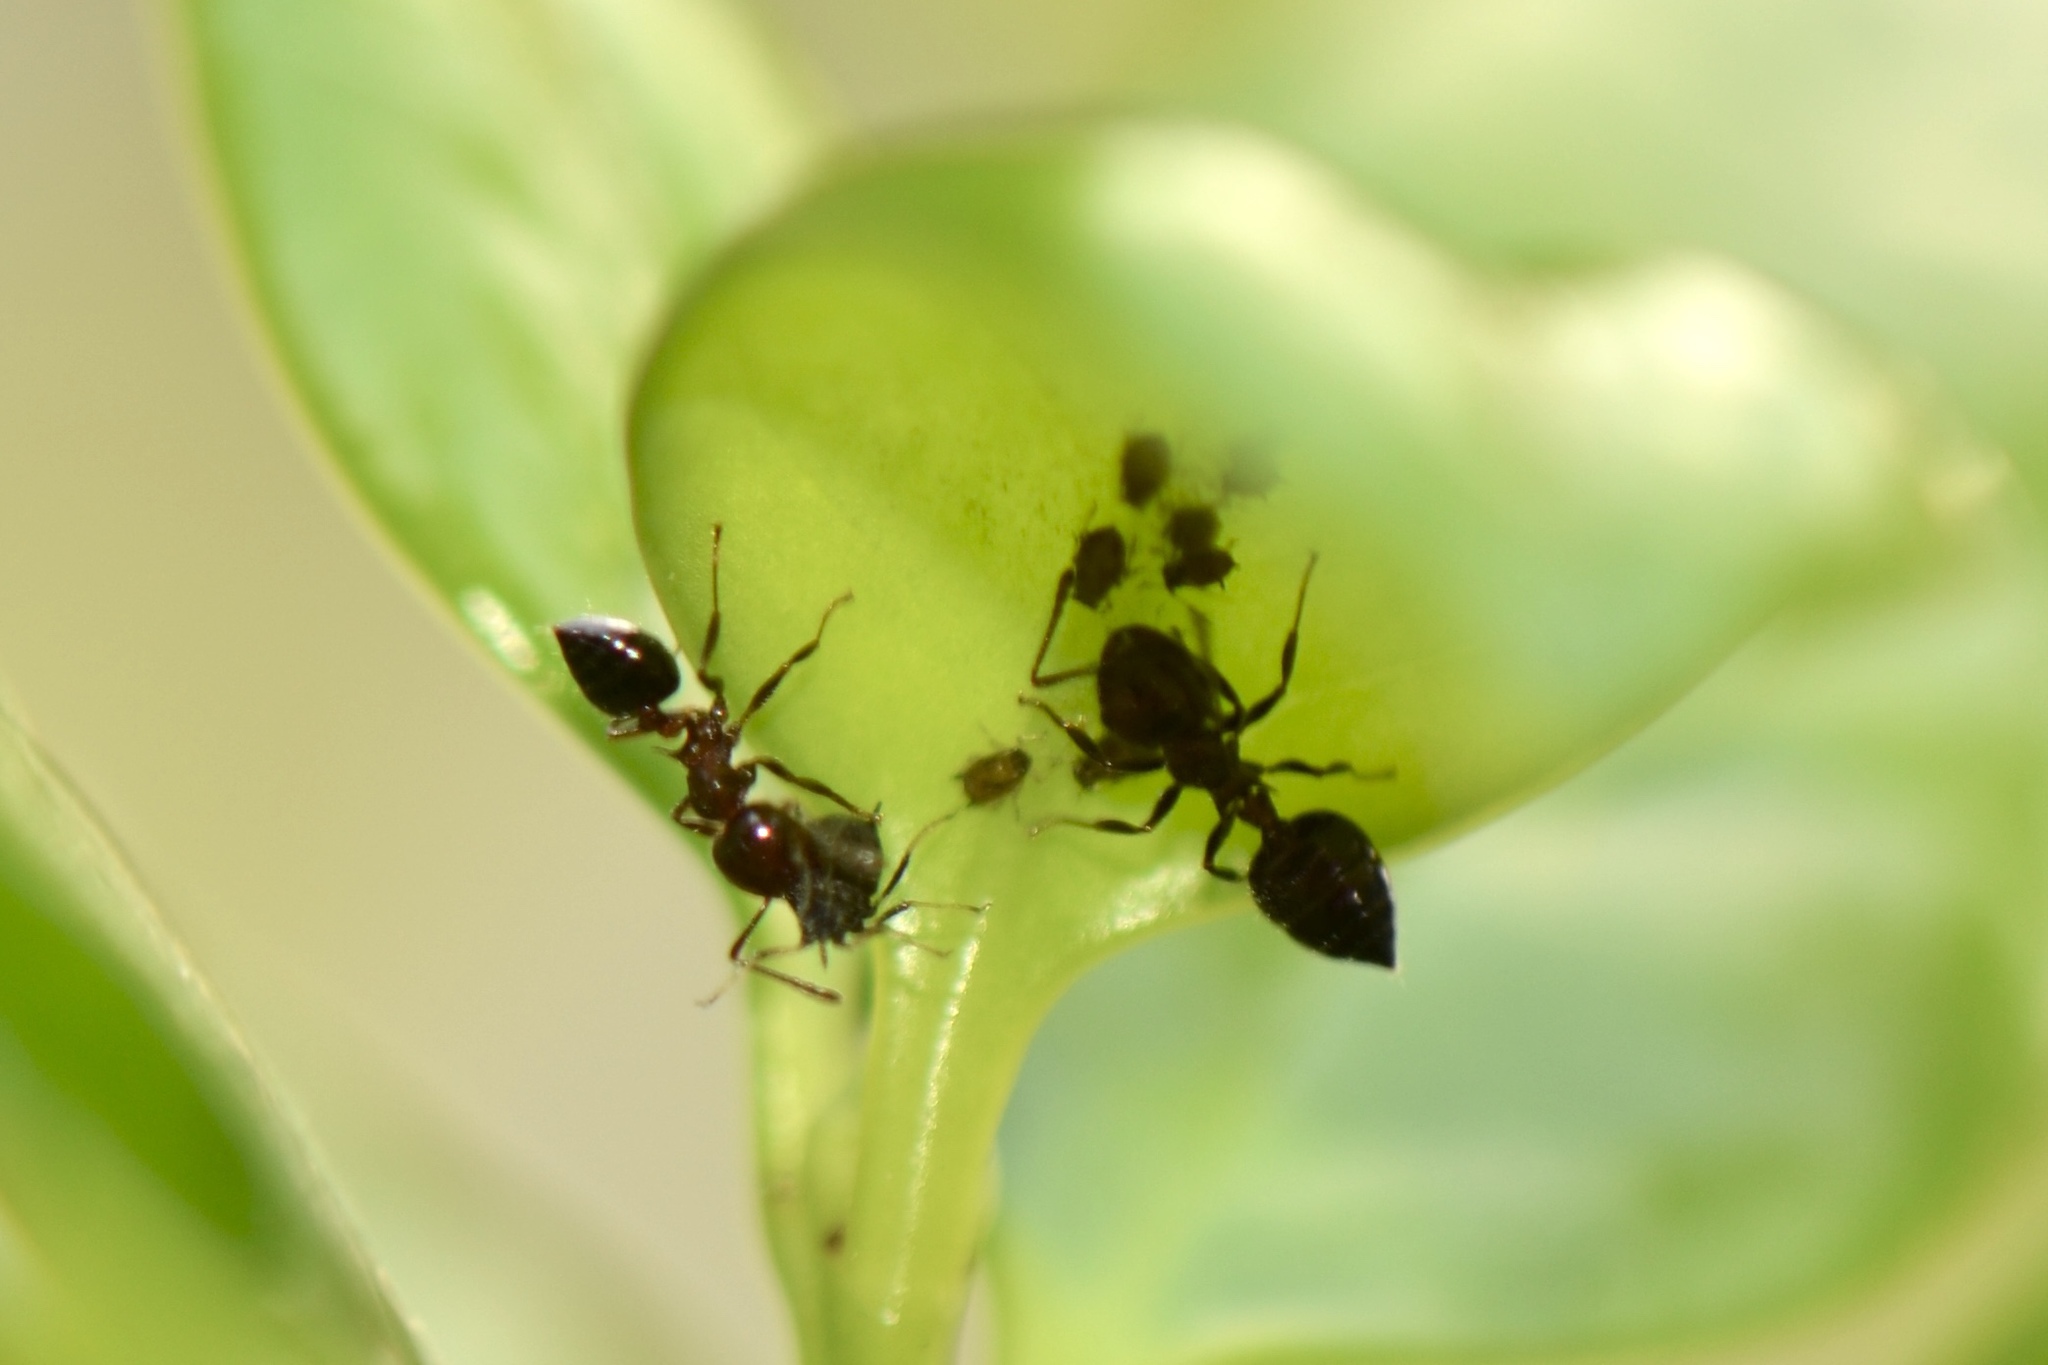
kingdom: Animalia
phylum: Arthropoda
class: Insecta
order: Hymenoptera
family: Formicidae
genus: Crematogaster
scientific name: Crematogaster laeviuscula
